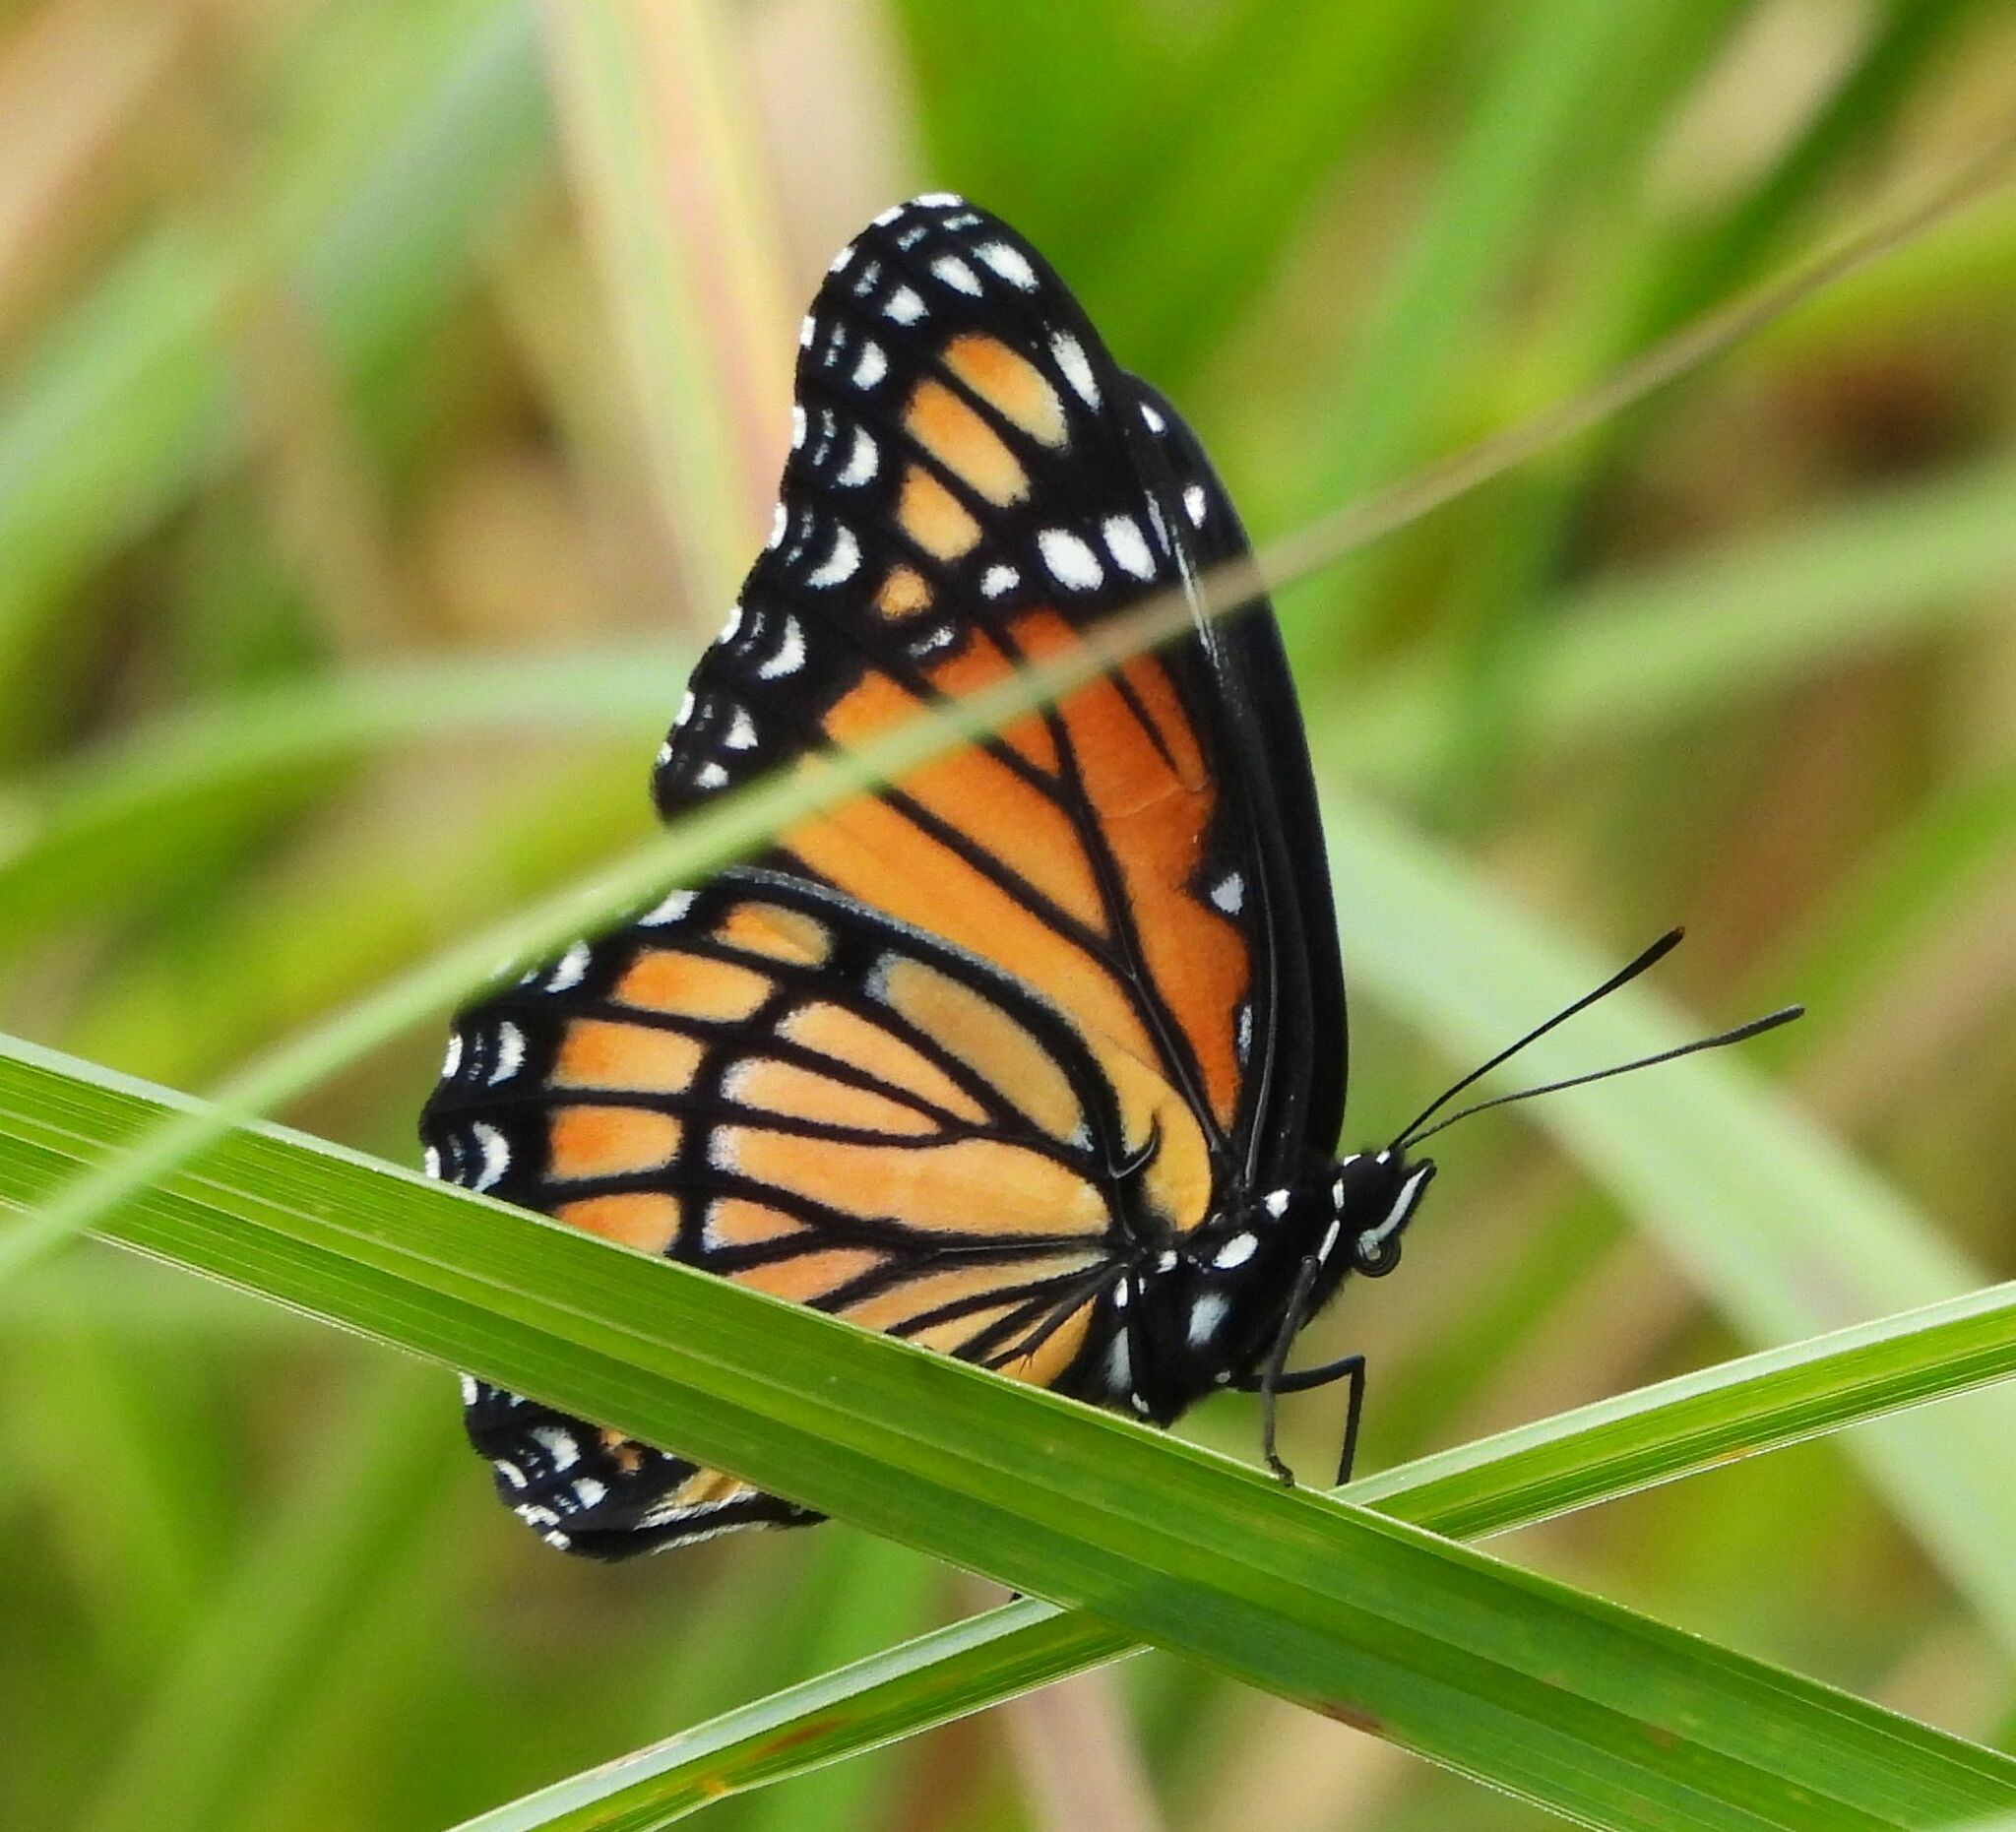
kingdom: Animalia
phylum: Arthropoda
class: Insecta
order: Lepidoptera
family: Nymphalidae
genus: Limenitis
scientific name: Limenitis archippus
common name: Viceroy
